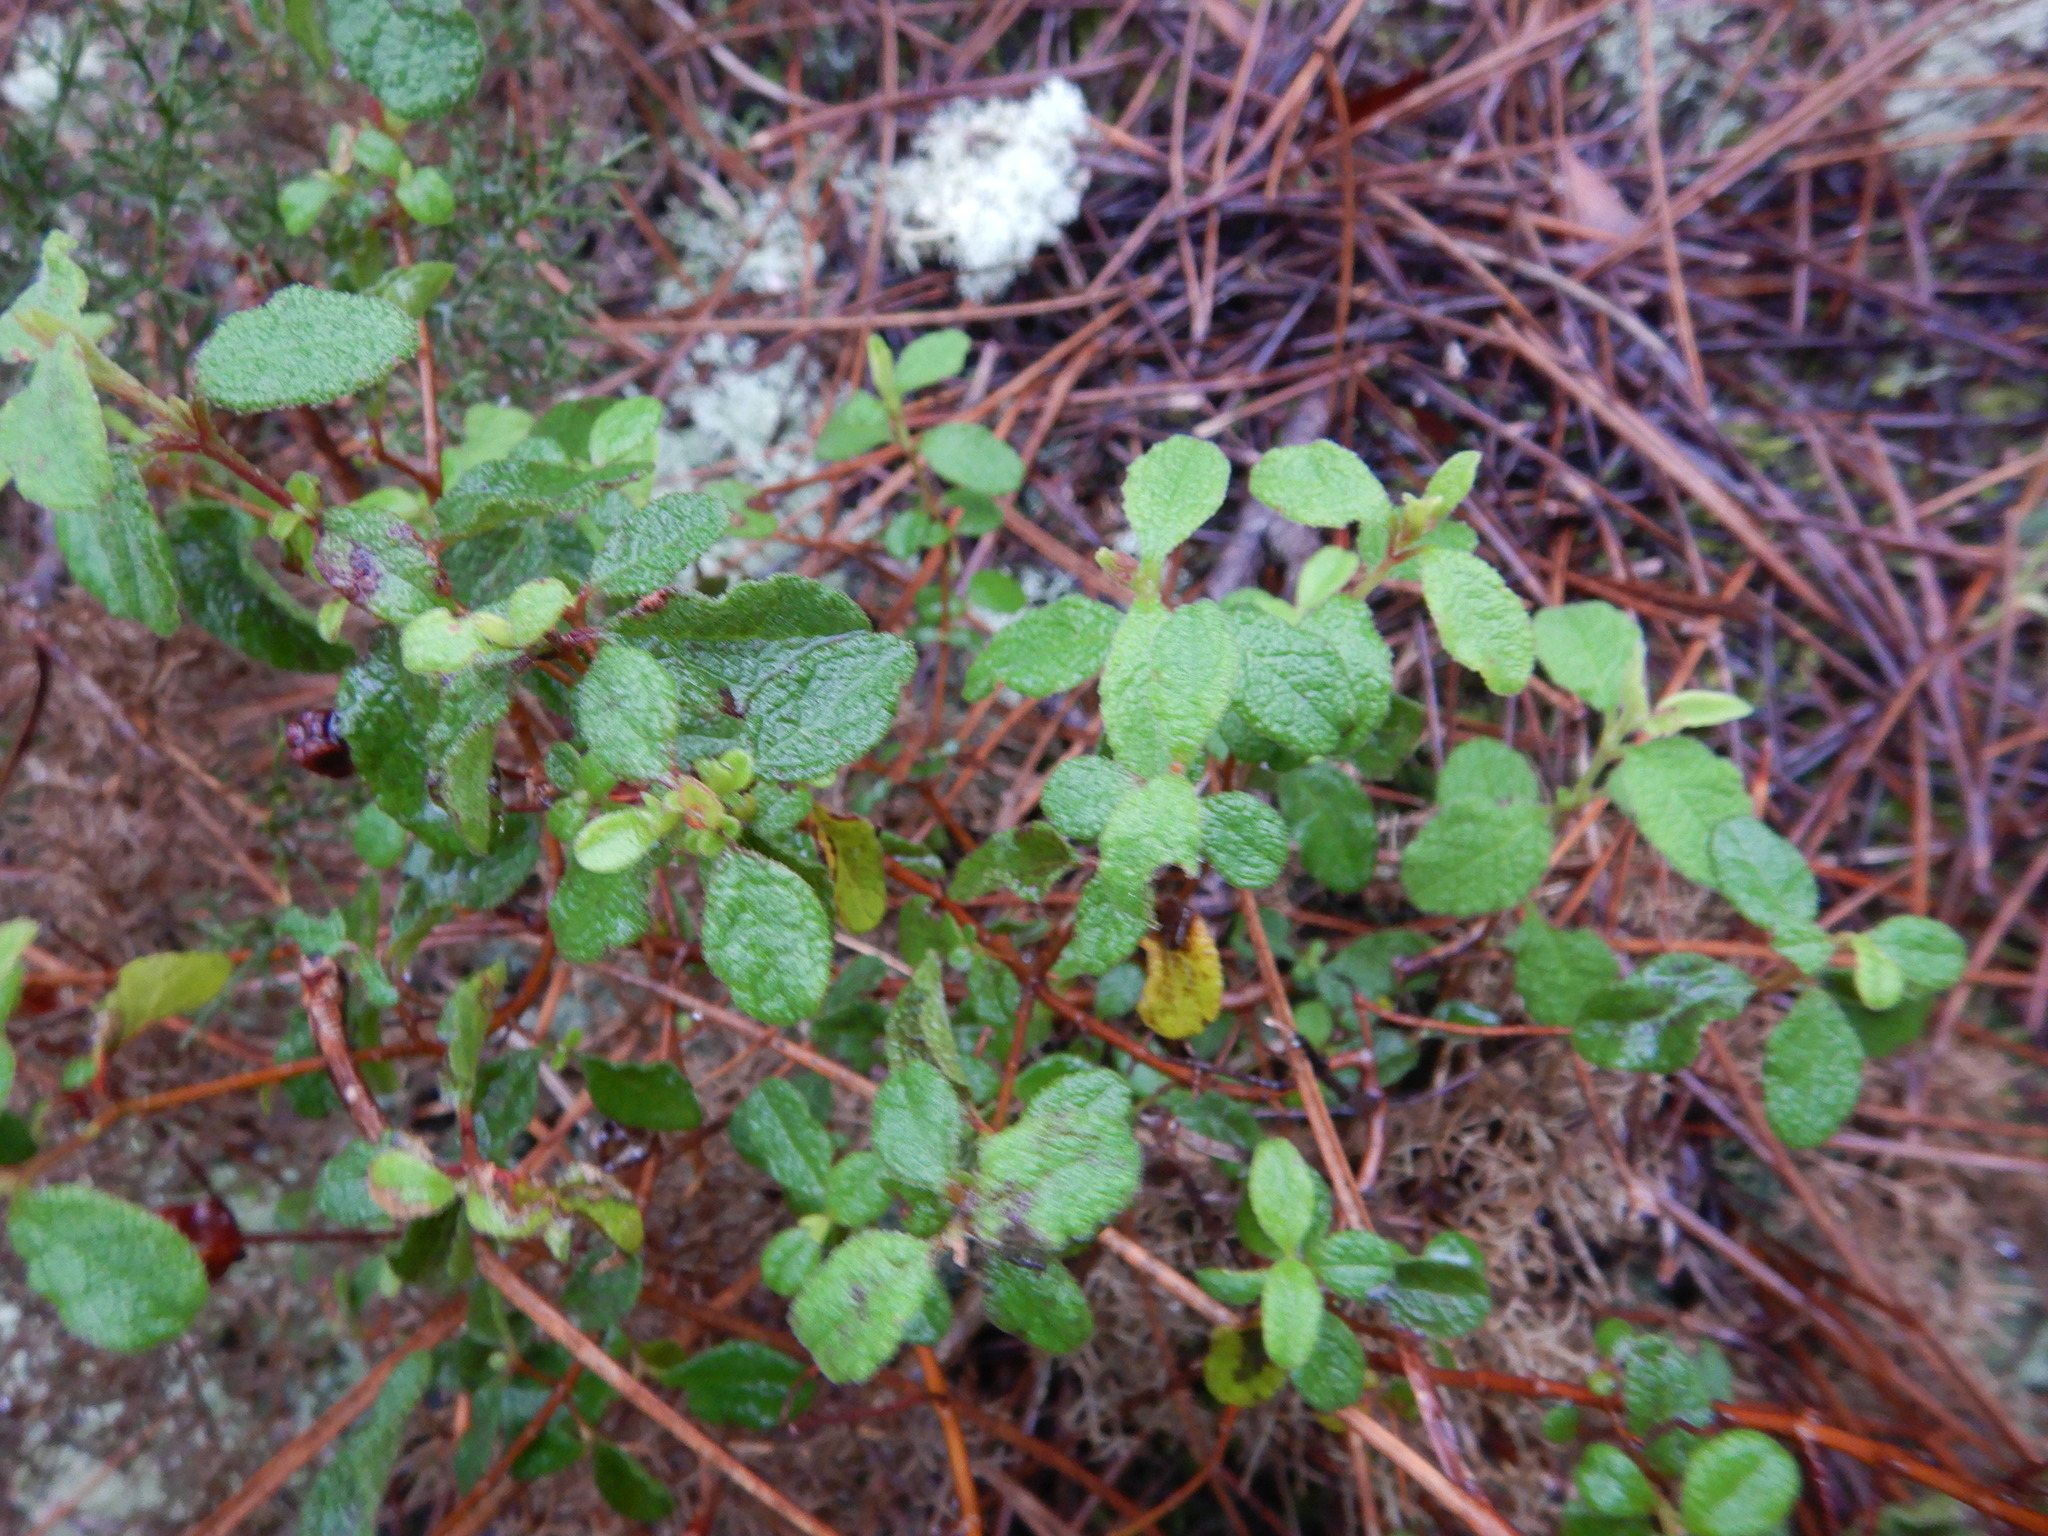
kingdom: Plantae
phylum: Tracheophyta
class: Magnoliopsida
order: Malvales
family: Cistaceae
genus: Cistus
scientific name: Cistus salviifolius
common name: Salvia cistus
